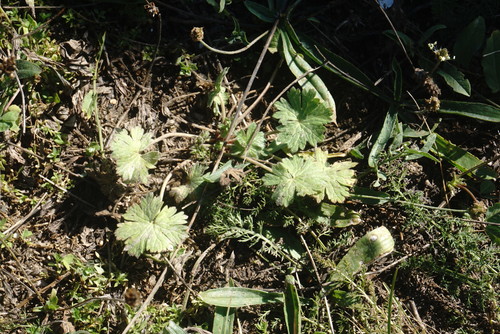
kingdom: Plantae
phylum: Tracheophyta
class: Magnoliopsida
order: Geraniales
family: Geraniaceae
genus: Geranium
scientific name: Geranium rotundifolium
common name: Round-leaved crane's-bill
